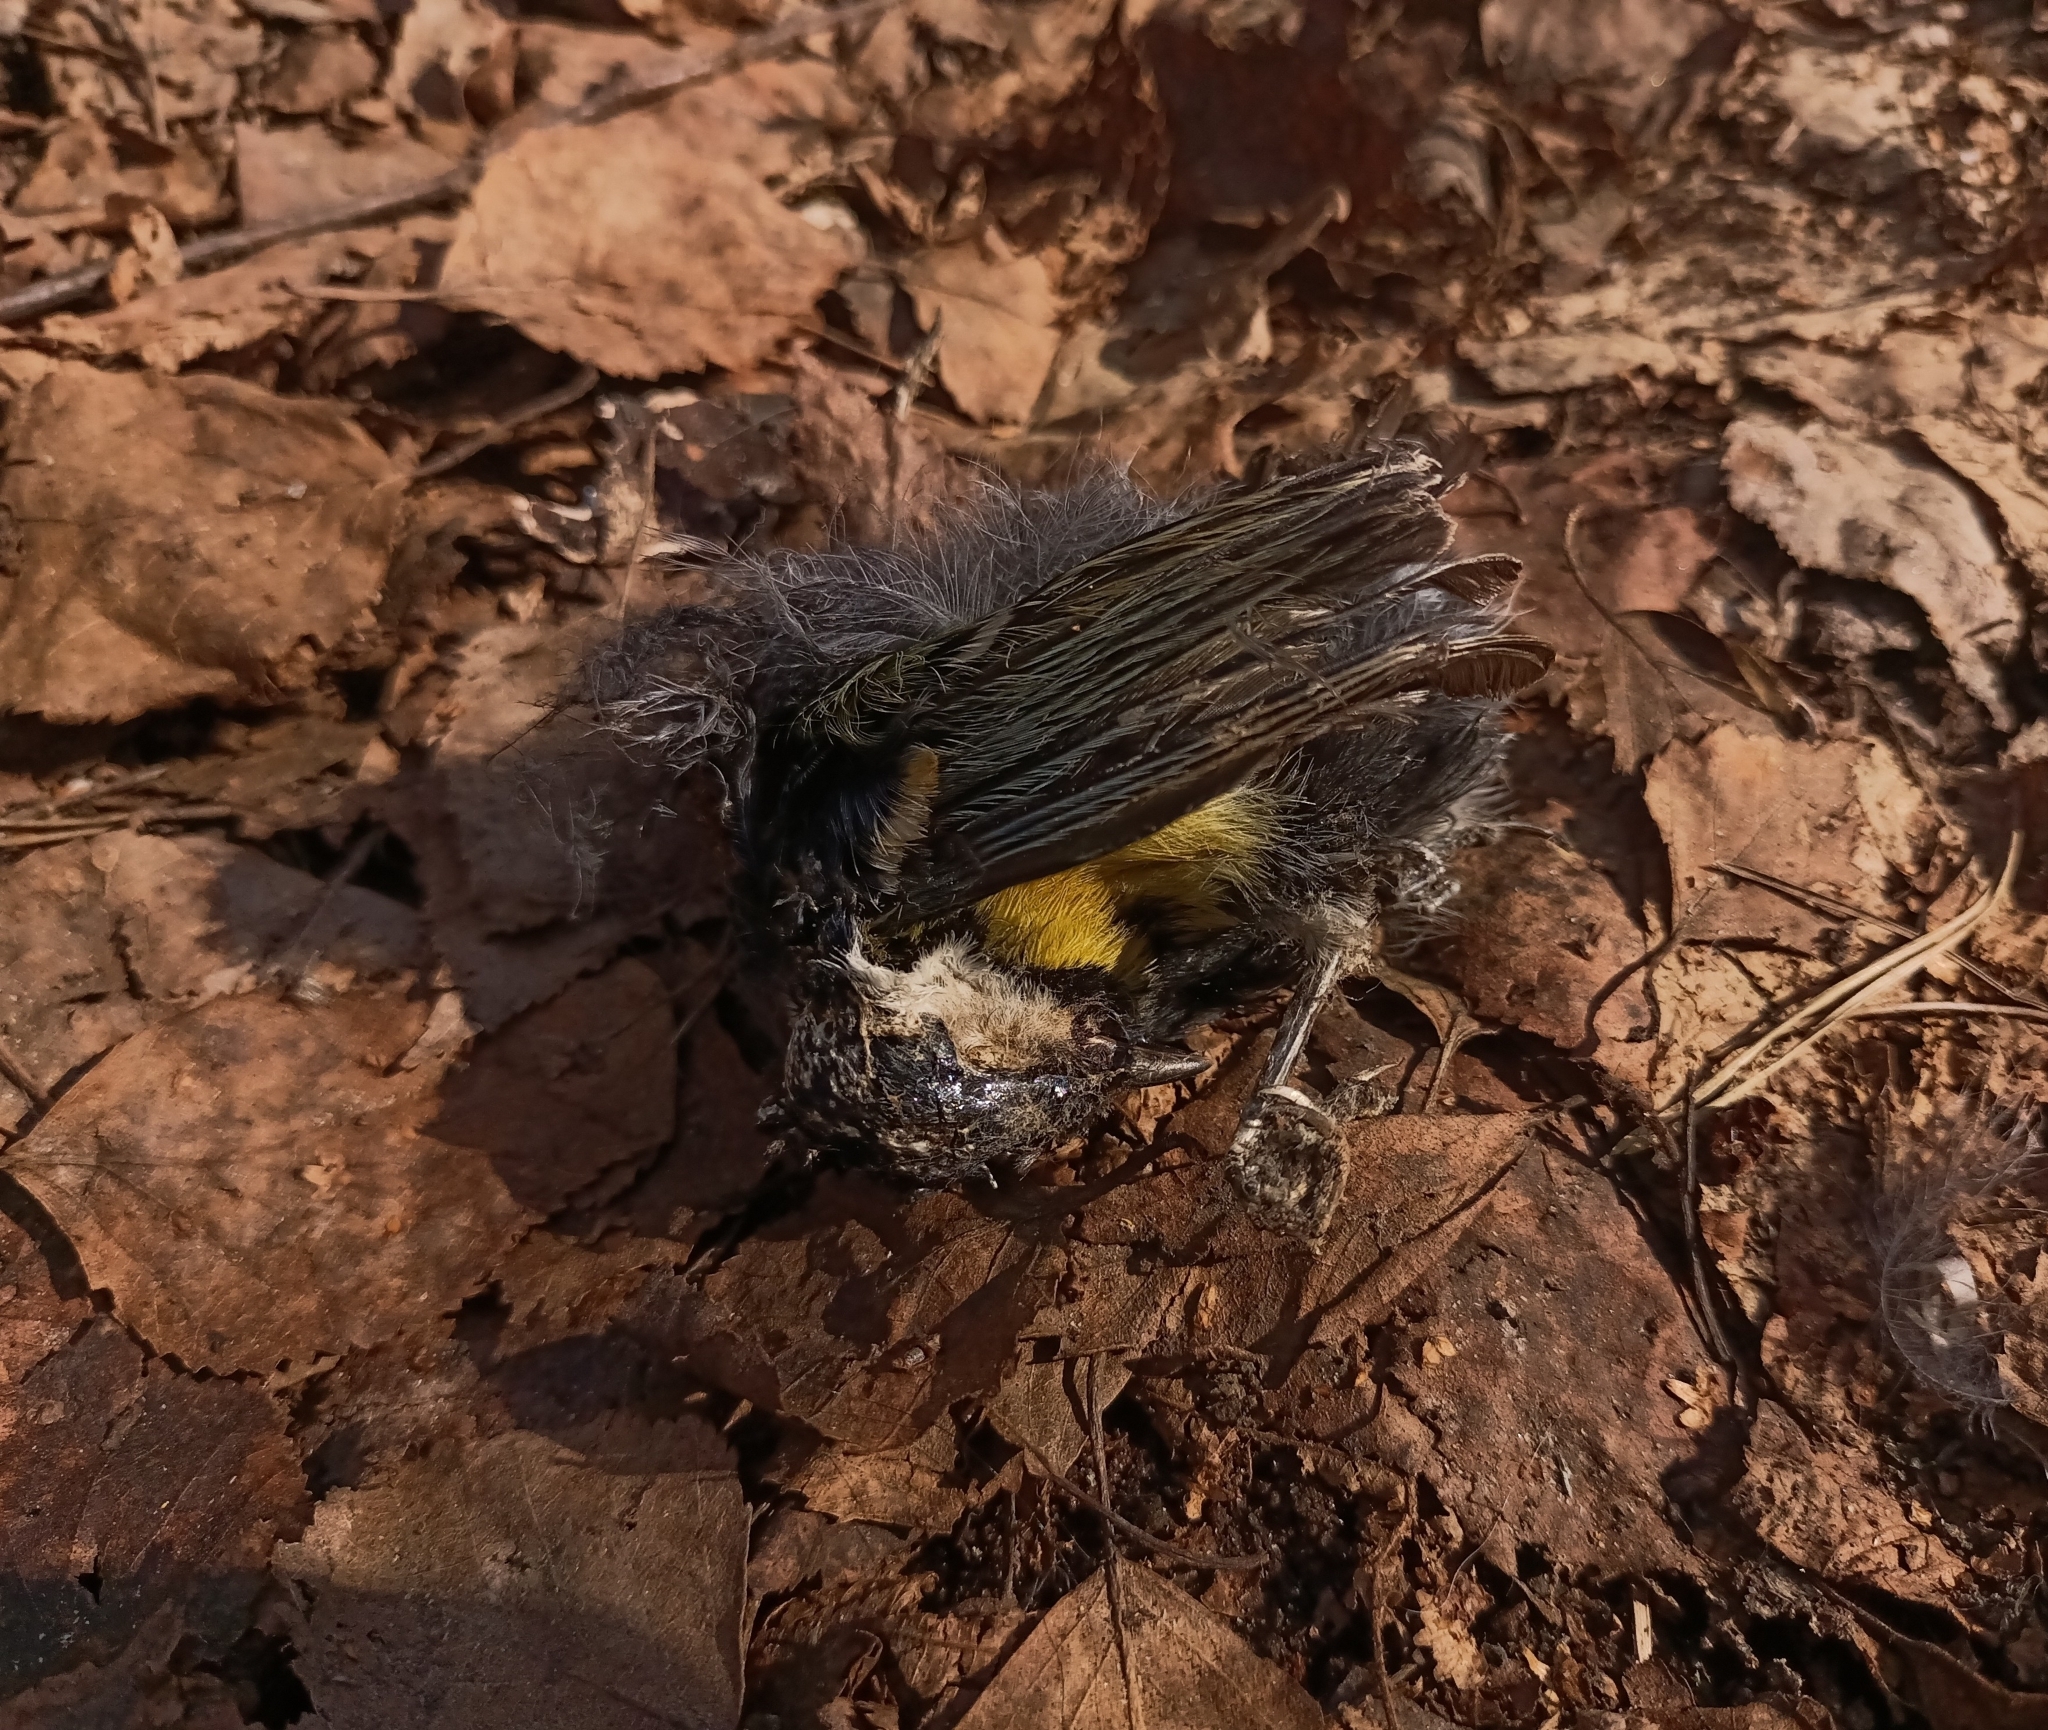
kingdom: Animalia
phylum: Chordata
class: Aves
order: Passeriformes
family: Paridae
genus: Cyanistes
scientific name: Cyanistes caeruleus
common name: Eurasian blue tit
